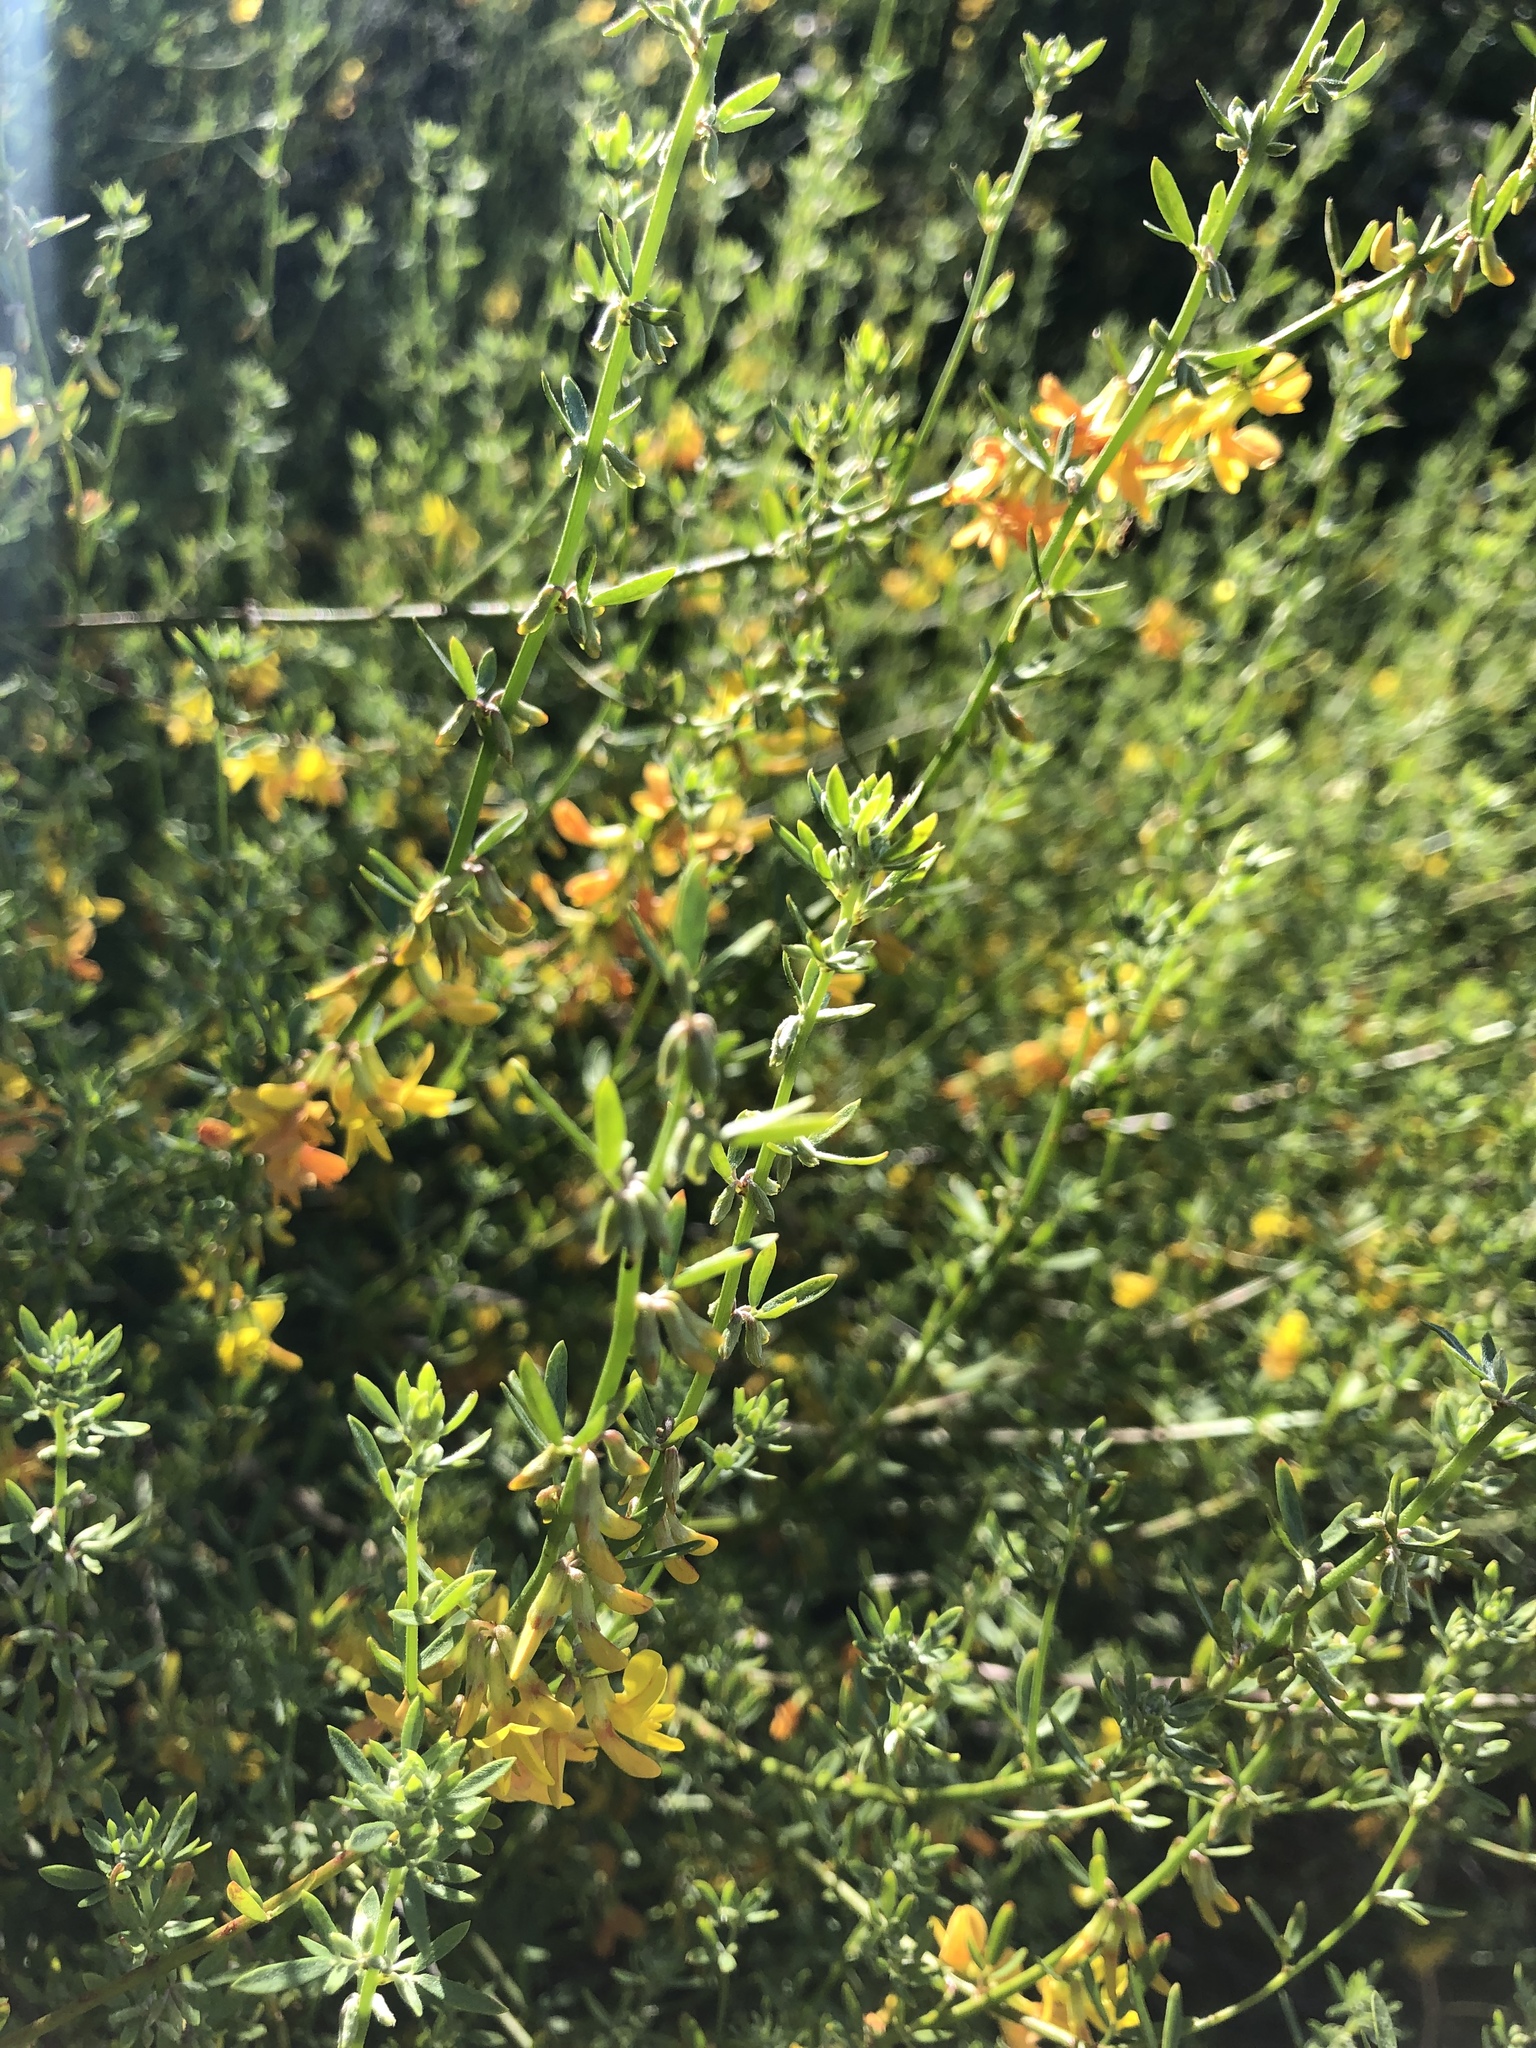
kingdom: Plantae
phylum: Tracheophyta
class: Magnoliopsida
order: Fabales
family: Fabaceae
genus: Acmispon
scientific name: Acmispon glaber
